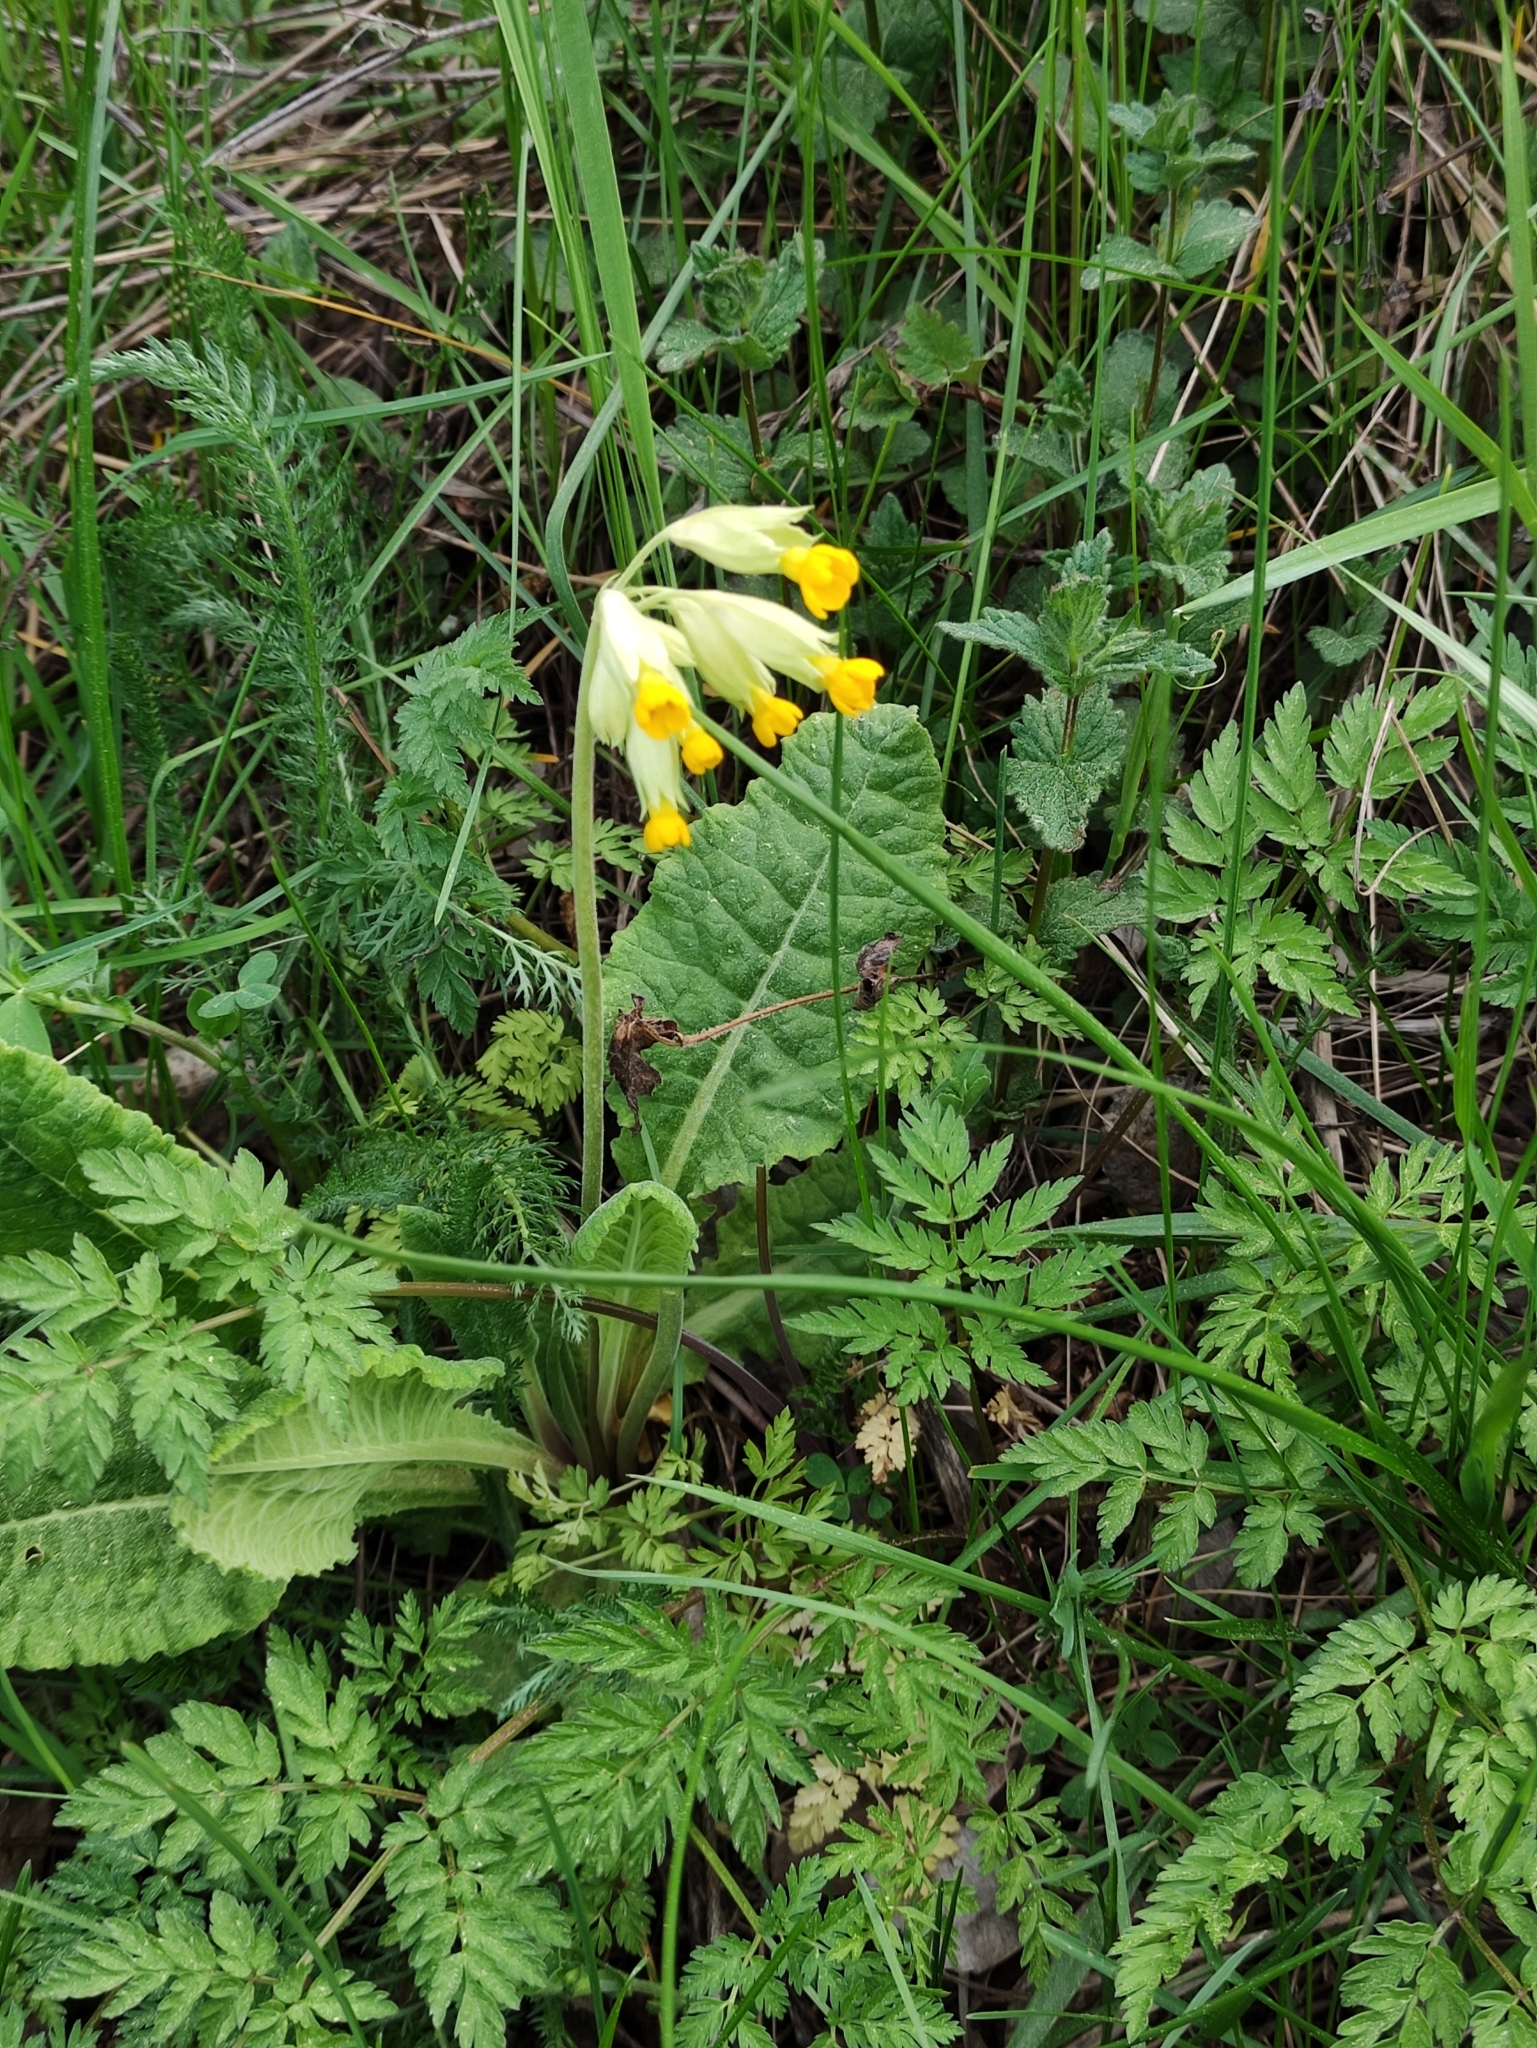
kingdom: Plantae
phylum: Tracheophyta
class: Magnoliopsida
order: Ericales
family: Primulaceae
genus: Primula
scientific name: Primula veris
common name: Cowslip
